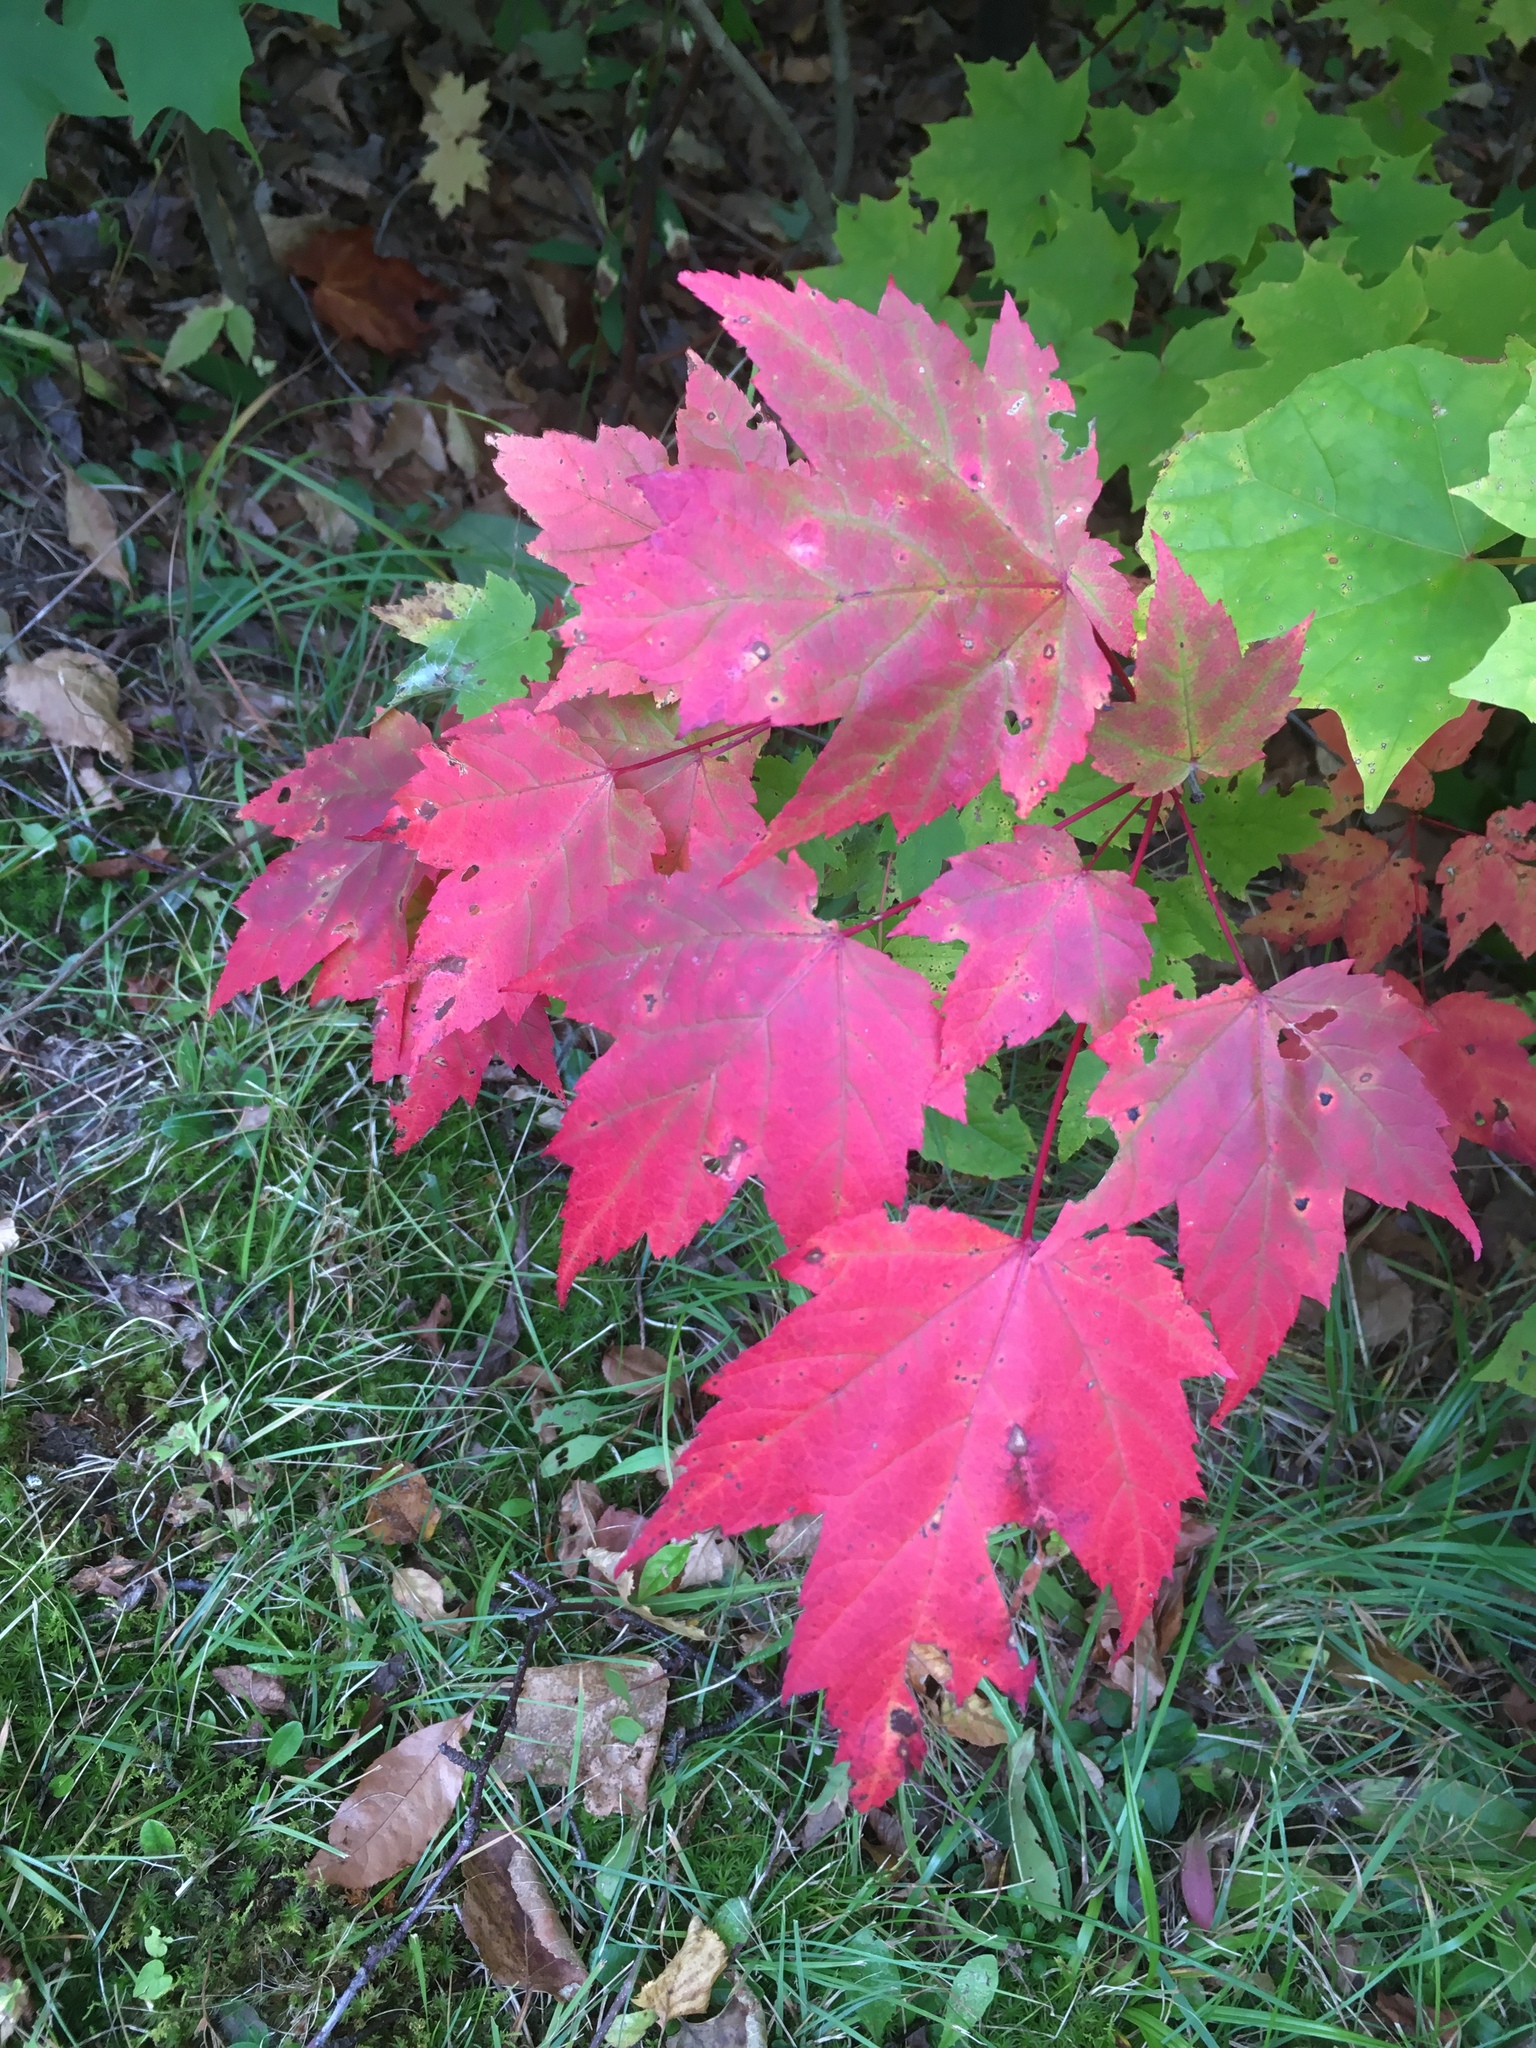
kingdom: Plantae
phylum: Tracheophyta
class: Magnoliopsida
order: Sapindales
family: Sapindaceae
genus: Acer
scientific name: Acer rubrum
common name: Red maple
